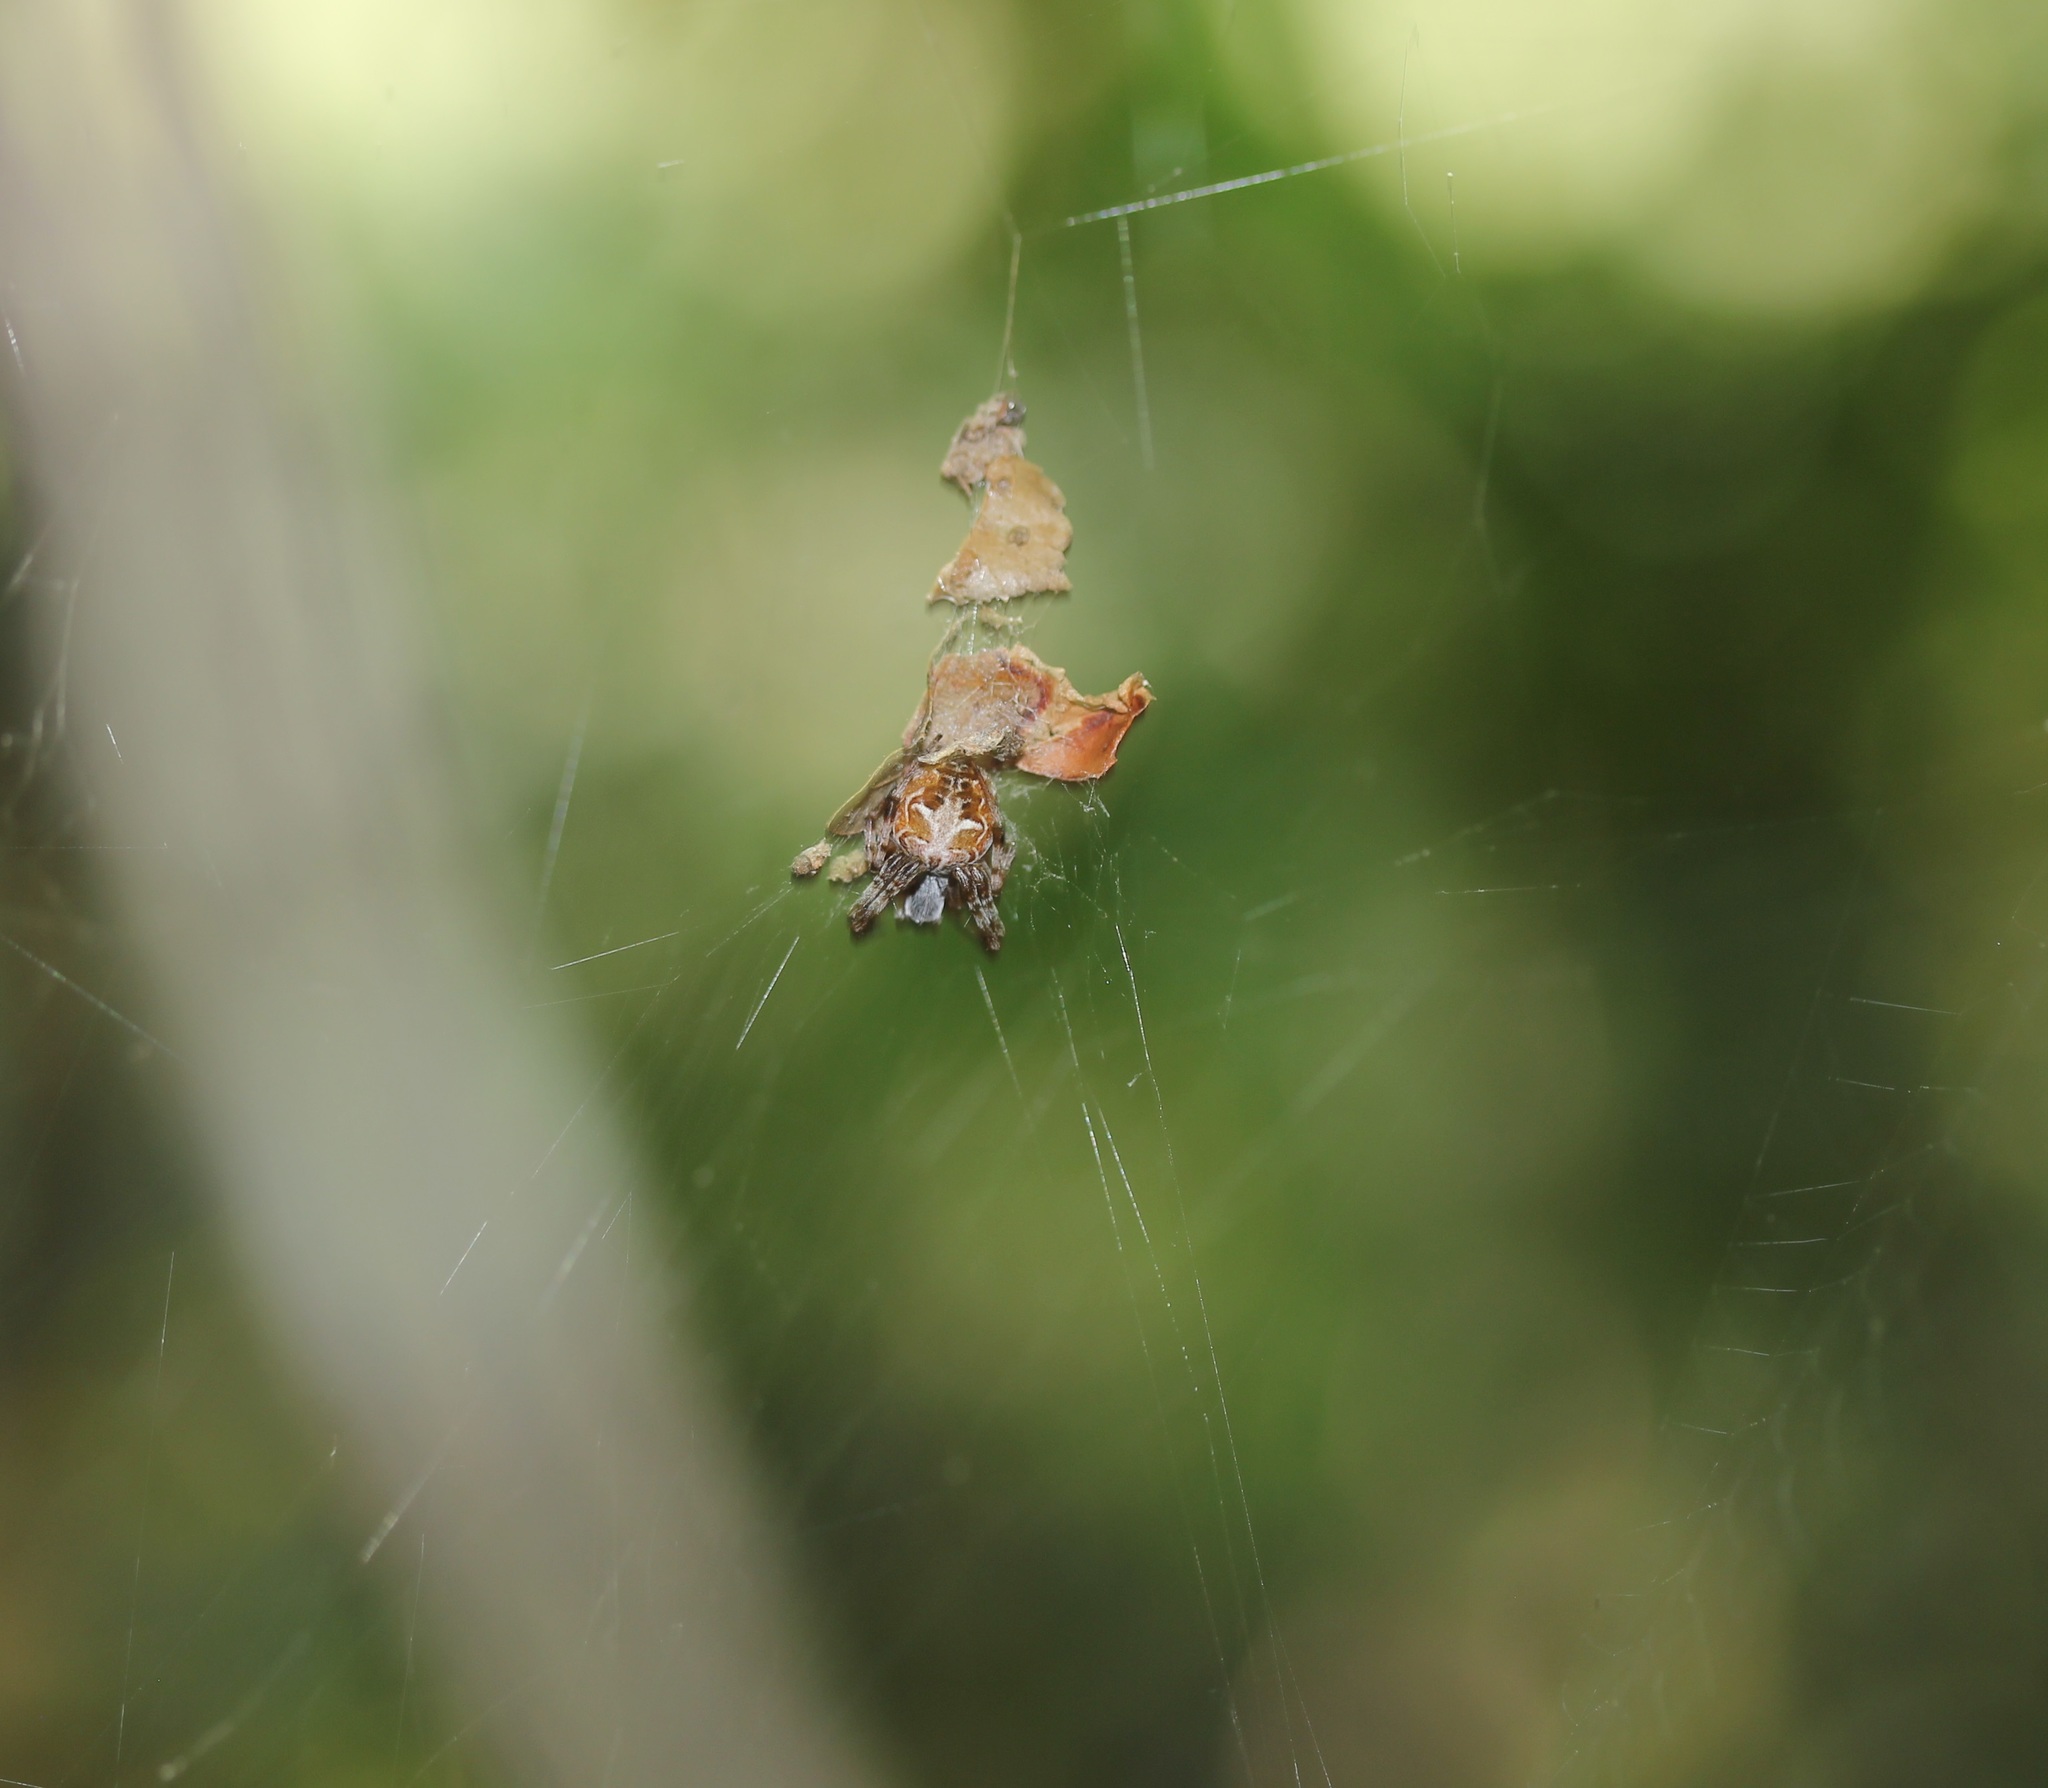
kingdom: Animalia
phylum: Arthropoda
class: Arachnida
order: Araneae
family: Araneidae
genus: Metepeira
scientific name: Metepeira labyrinthea
